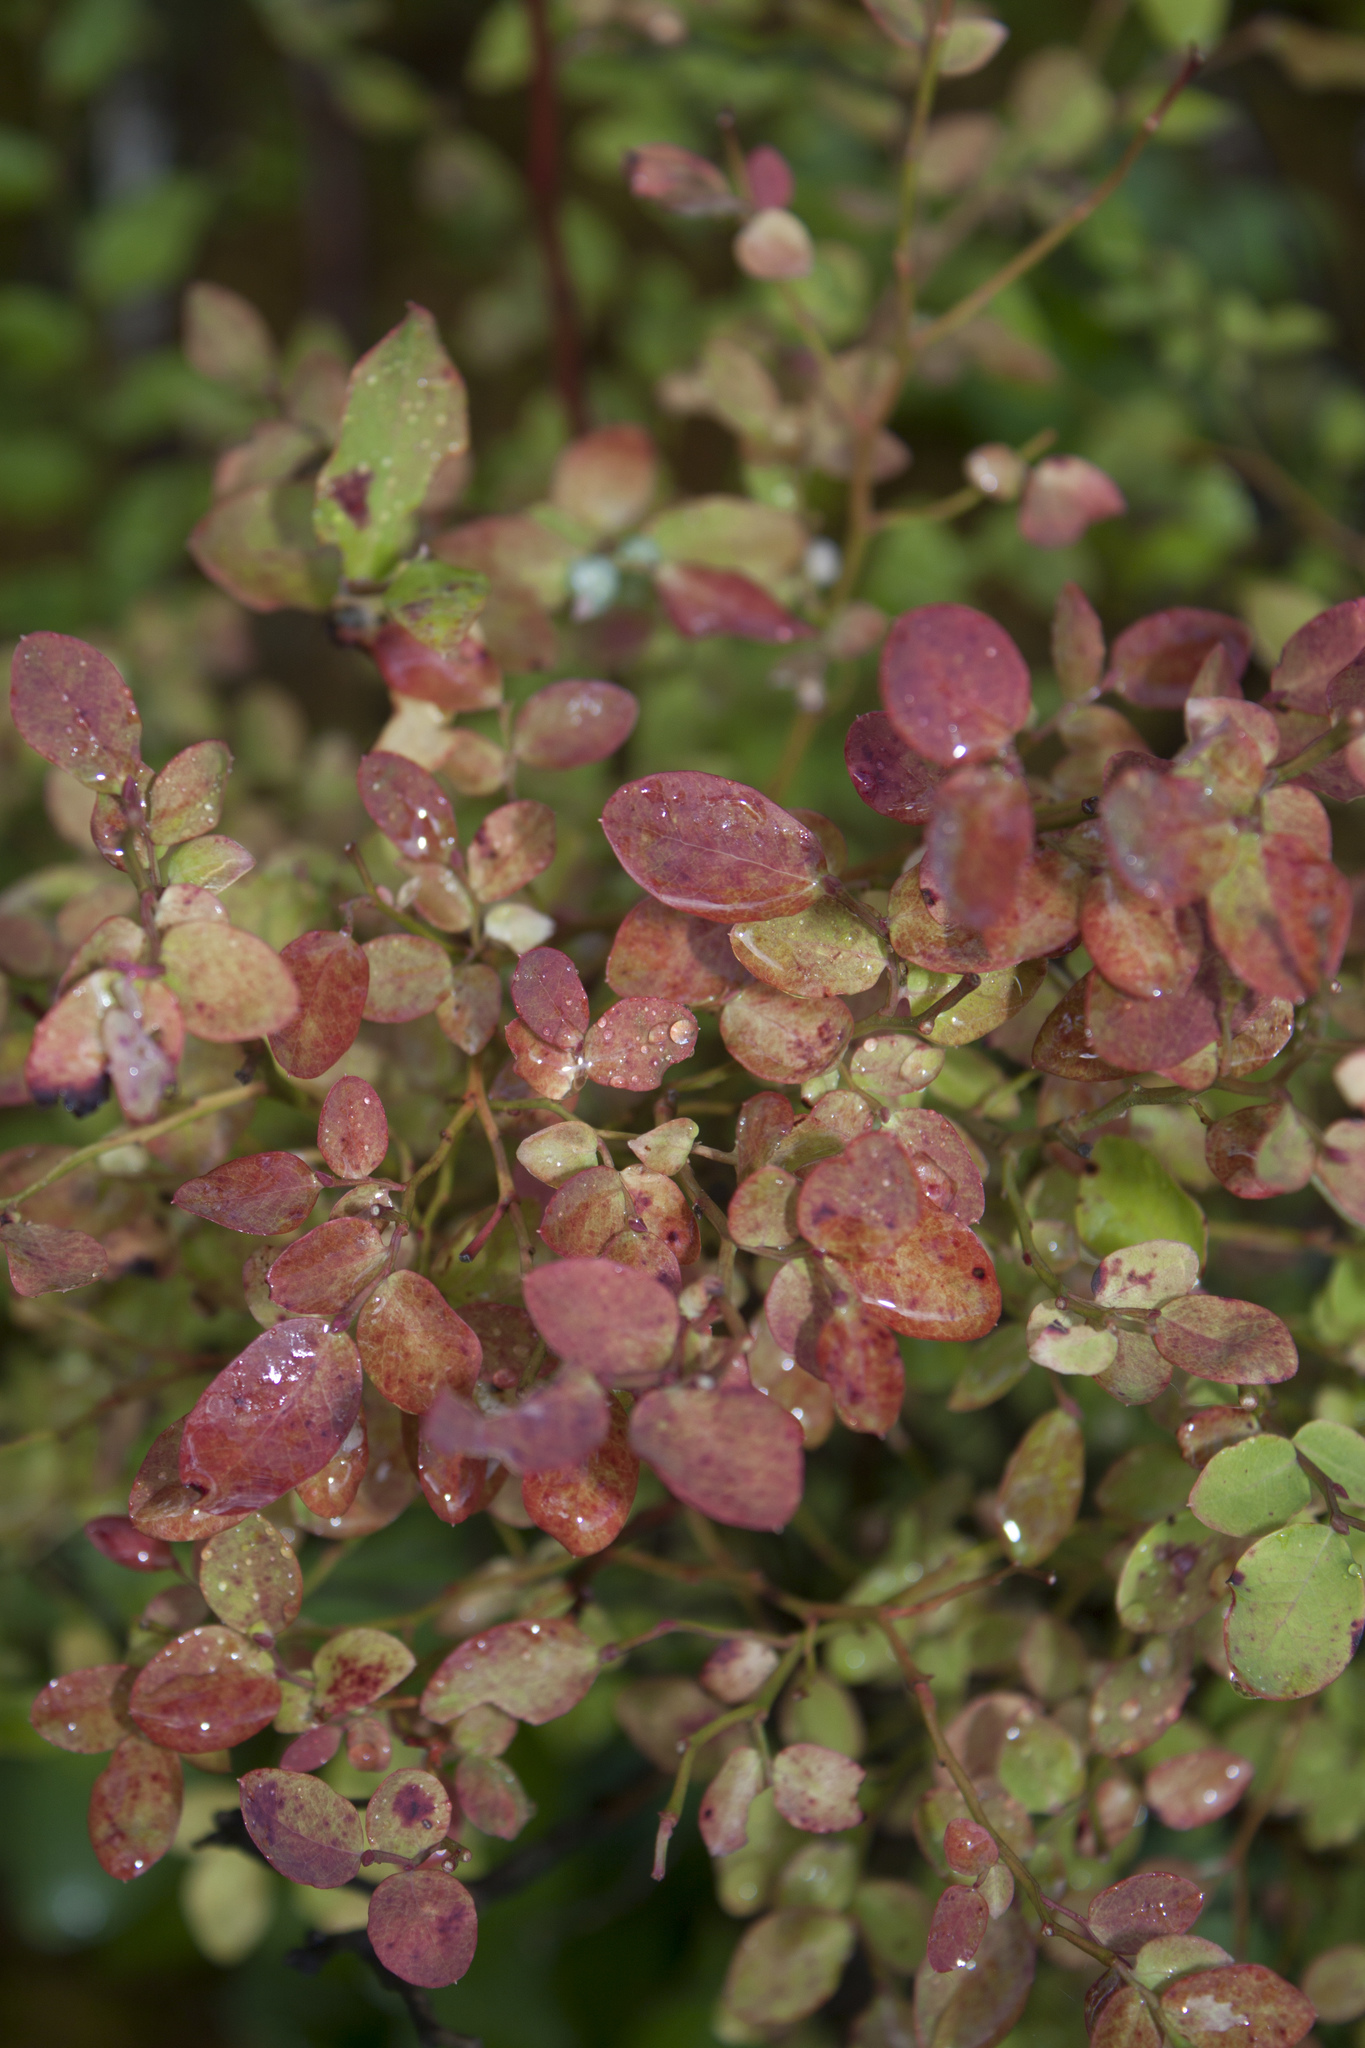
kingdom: Plantae
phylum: Tracheophyta
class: Magnoliopsida
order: Ericales
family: Ericaceae
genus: Vaccinium
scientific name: Vaccinium parvifolium
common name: Red-huckleberry
